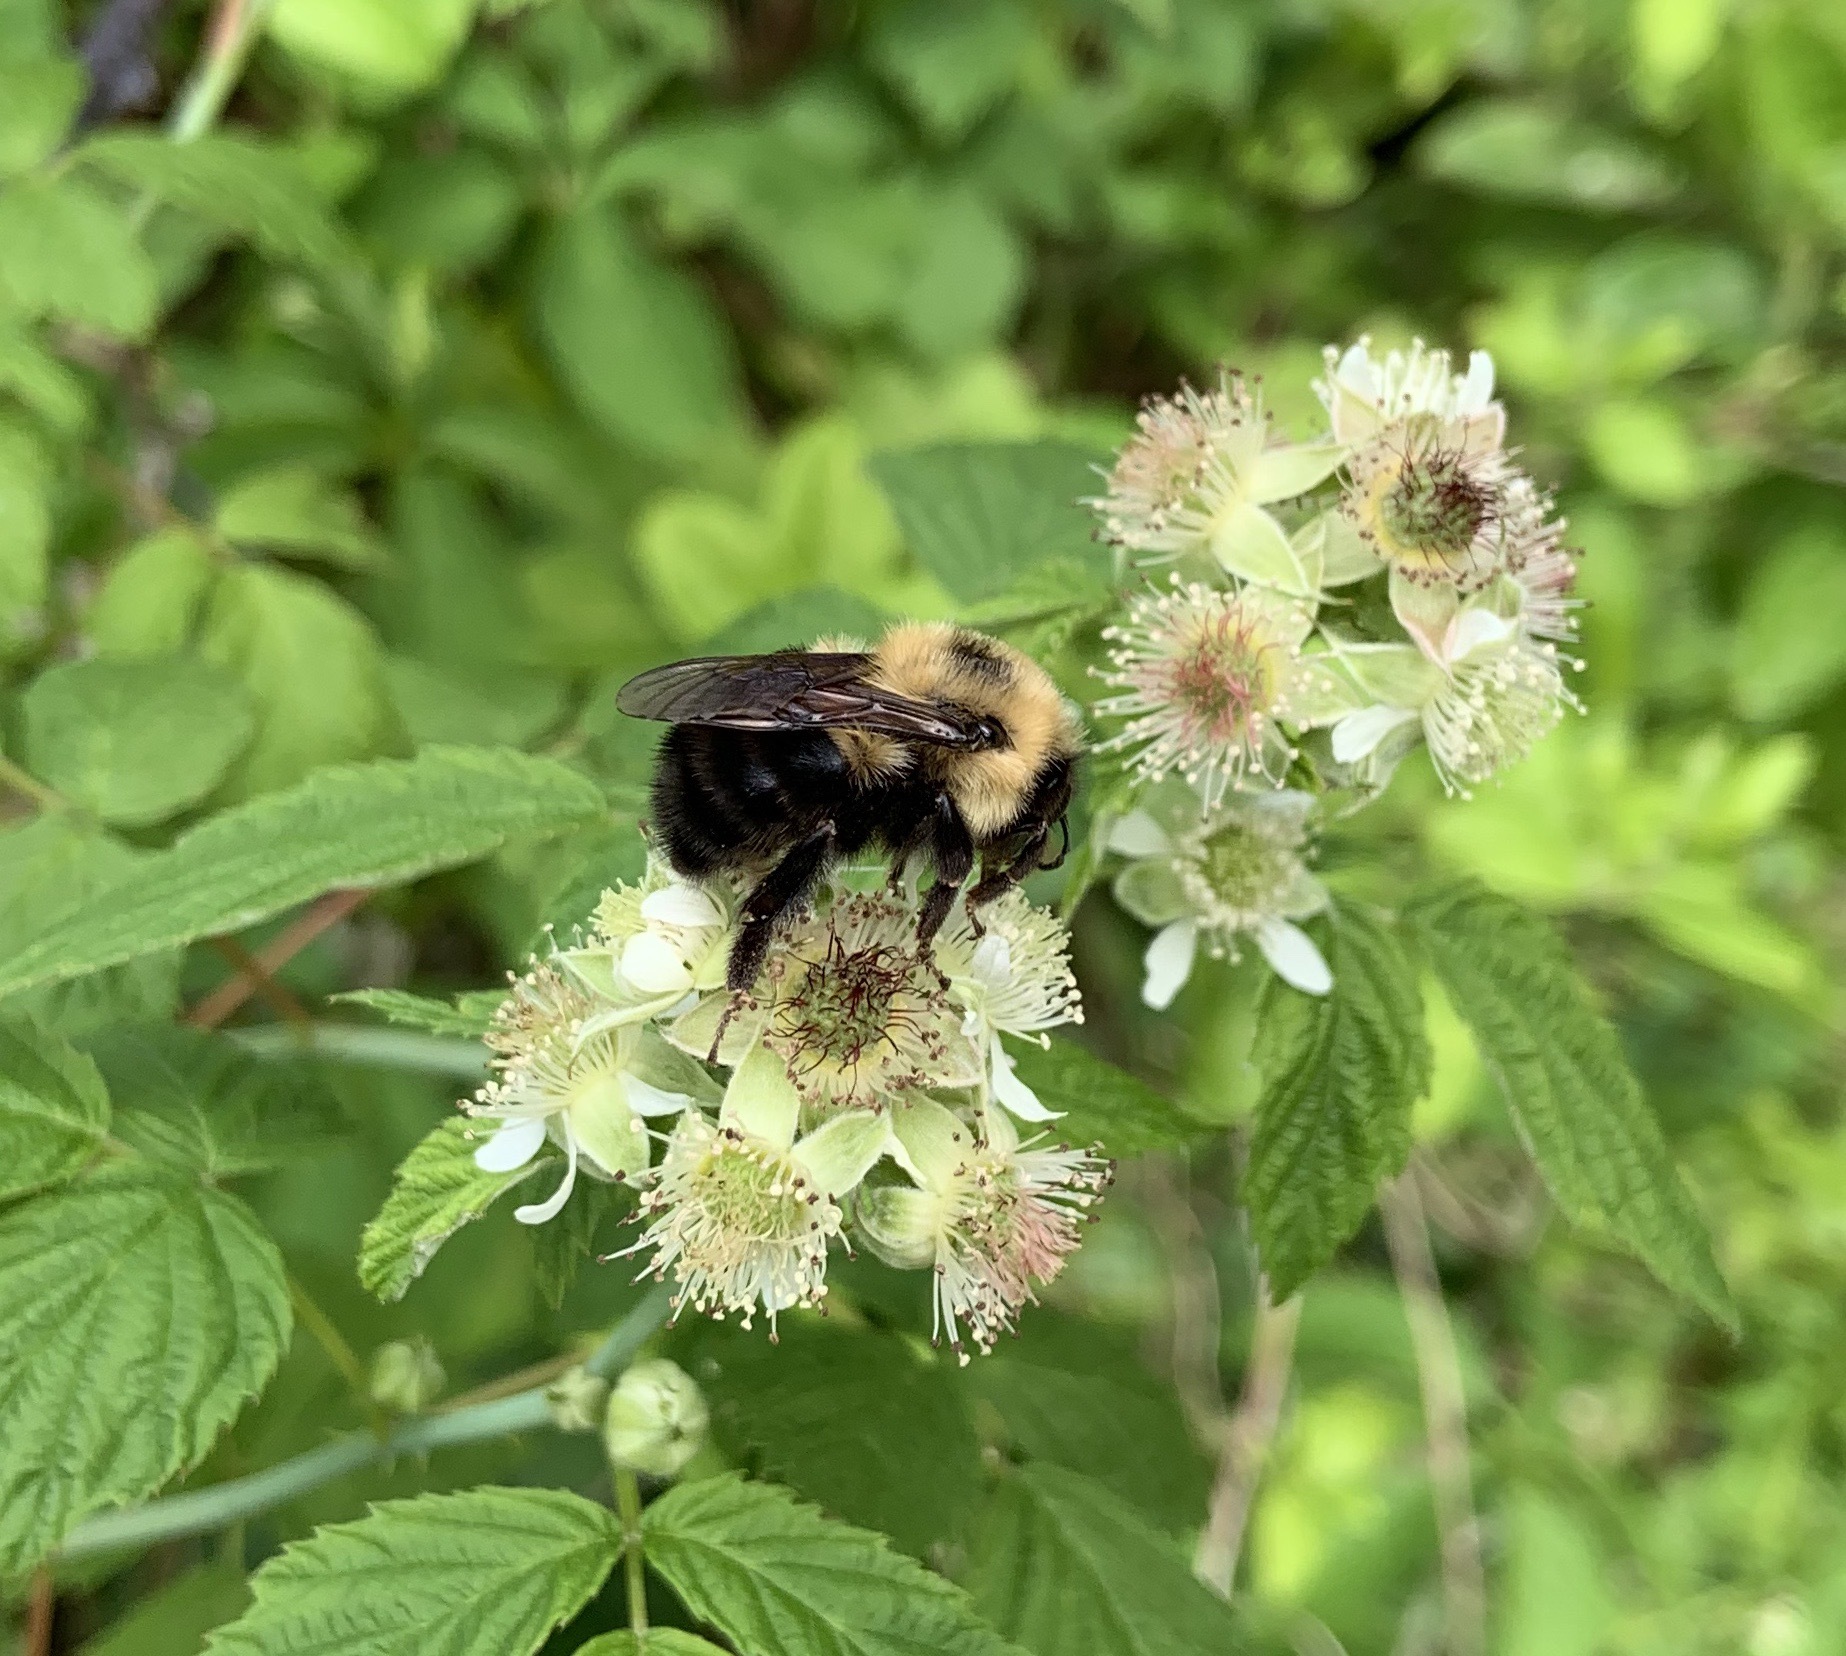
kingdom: Animalia
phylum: Arthropoda
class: Insecta
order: Hymenoptera
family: Apidae
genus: Bombus
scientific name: Bombus bimaculatus
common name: Two-spotted bumble bee
